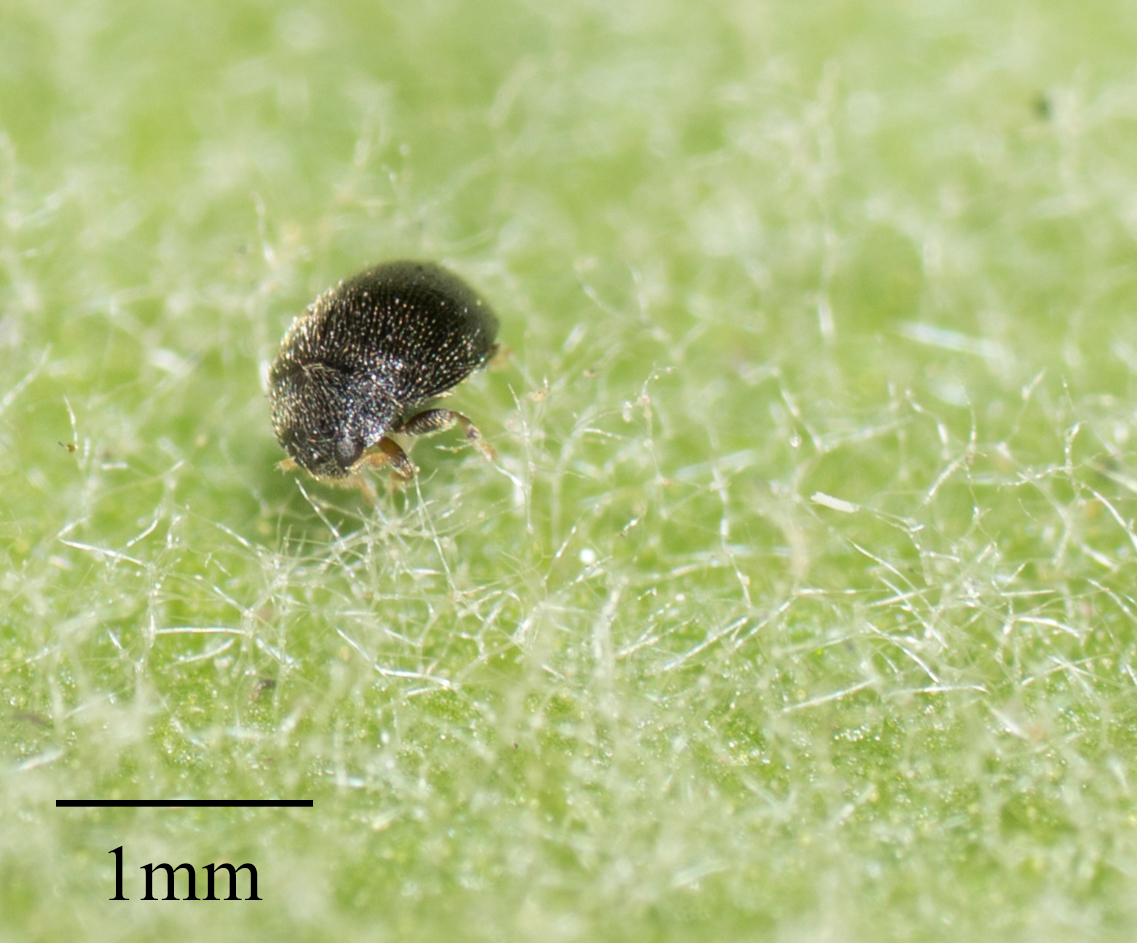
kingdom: Animalia
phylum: Arthropoda
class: Insecta
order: Coleoptera
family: Coccinellidae
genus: Stethorus
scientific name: Stethorus punctum
